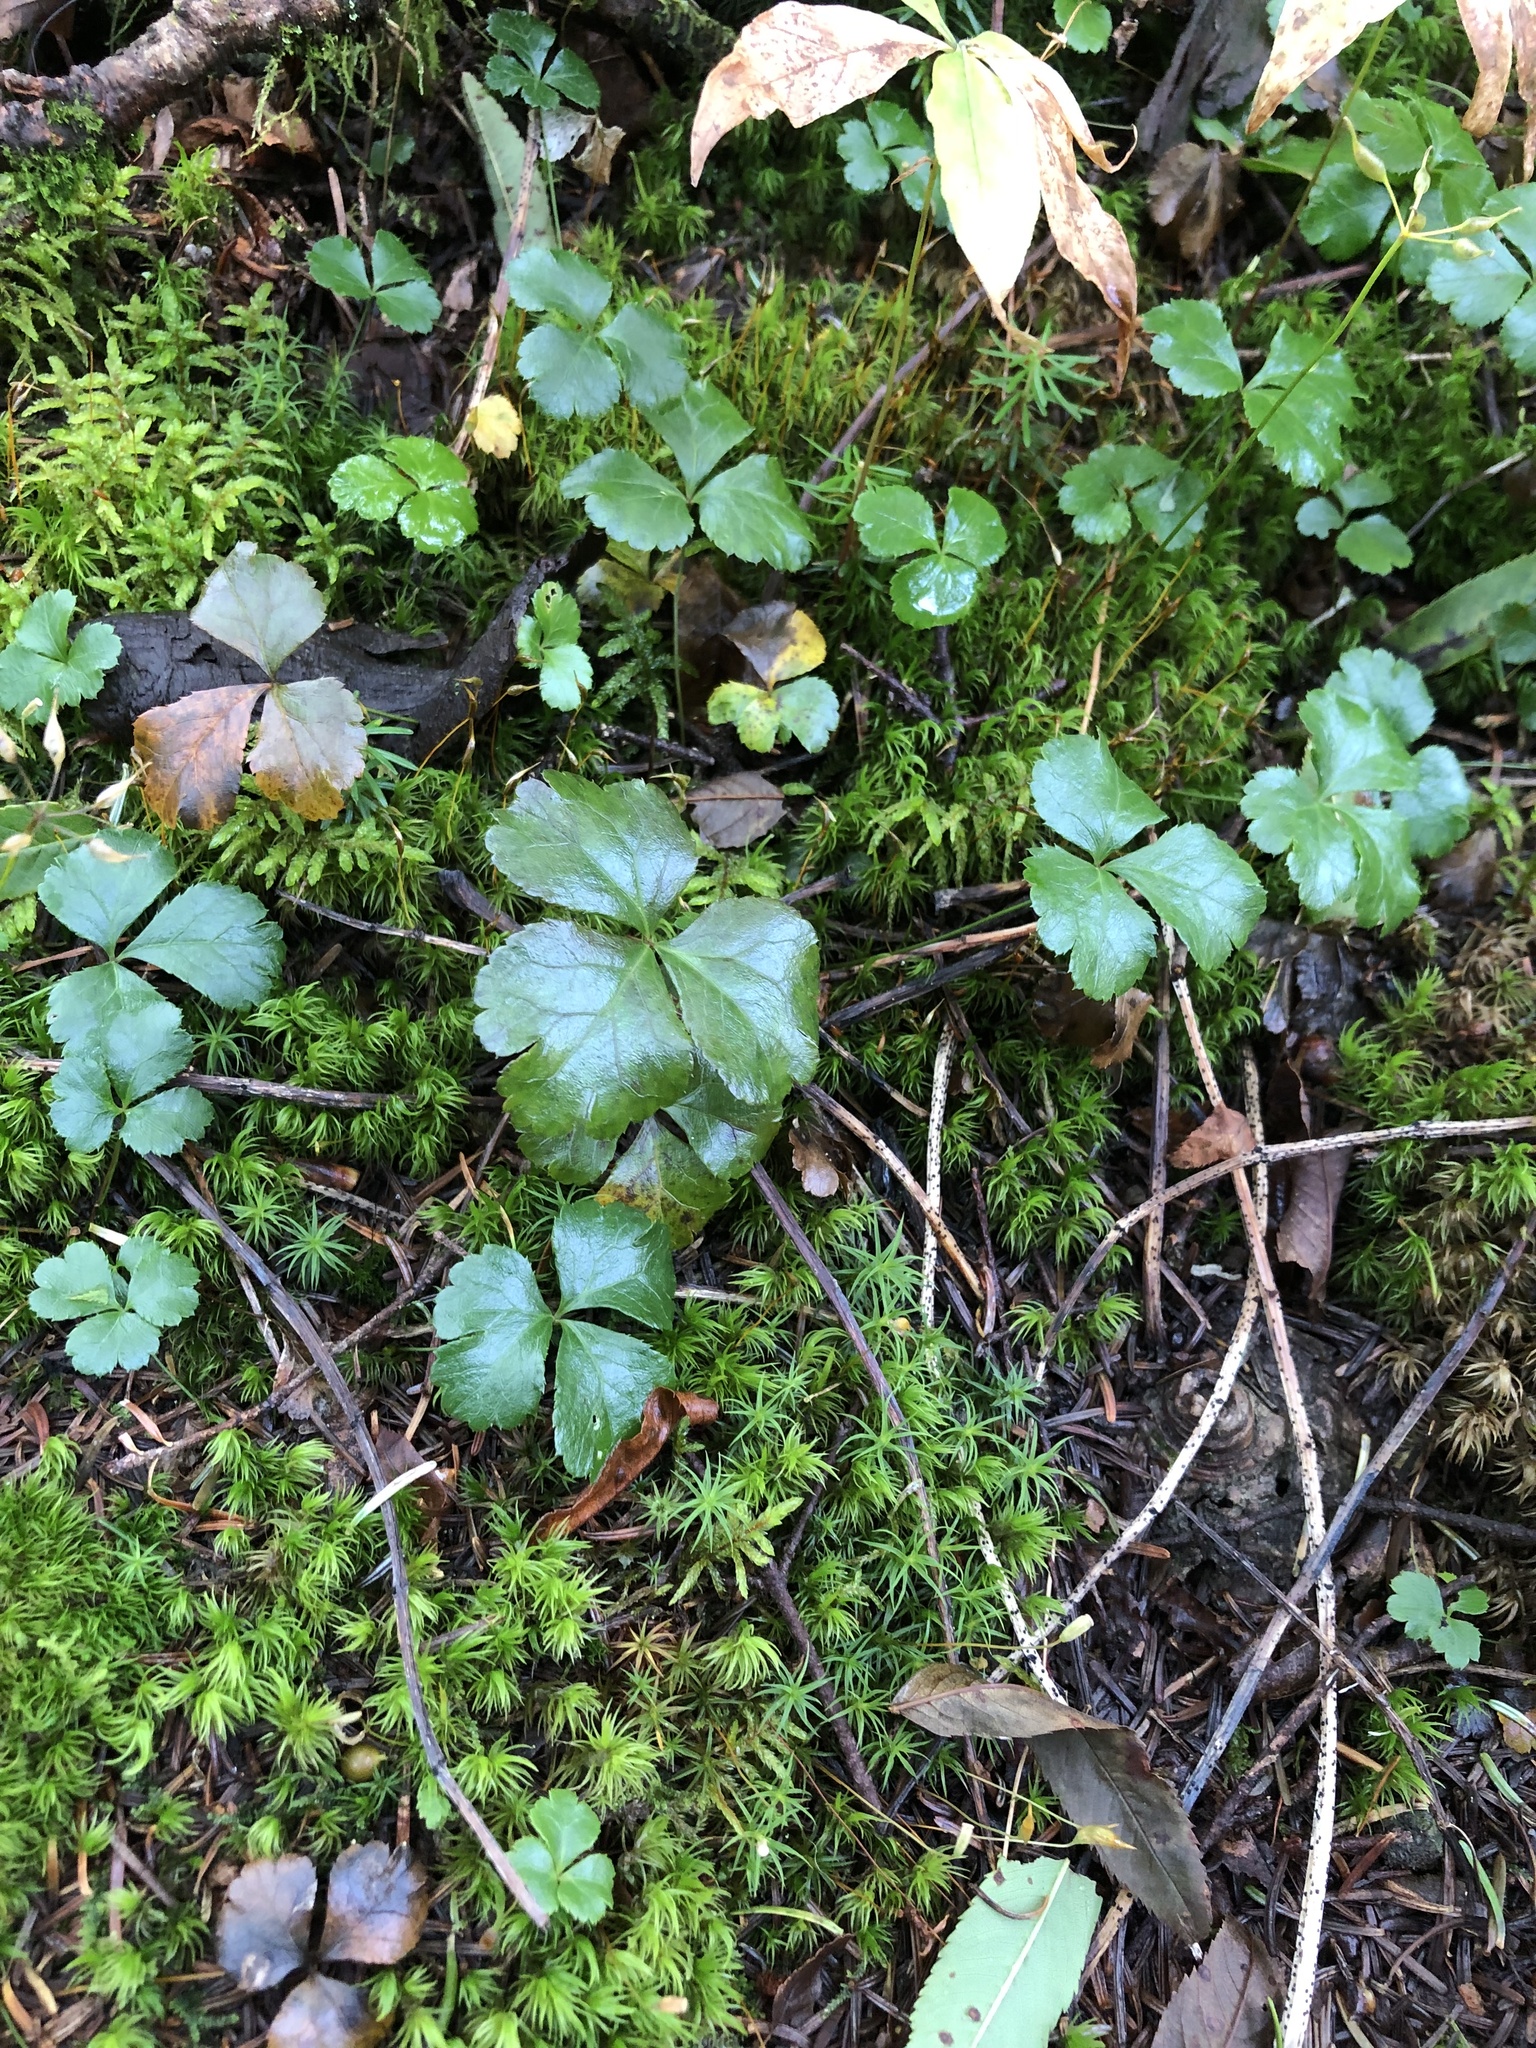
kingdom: Plantae
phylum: Tracheophyta
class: Magnoliopsida
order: Ranunculales
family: Ranunculaceae
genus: Coptis
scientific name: Coptis trifolia
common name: Canker-root
